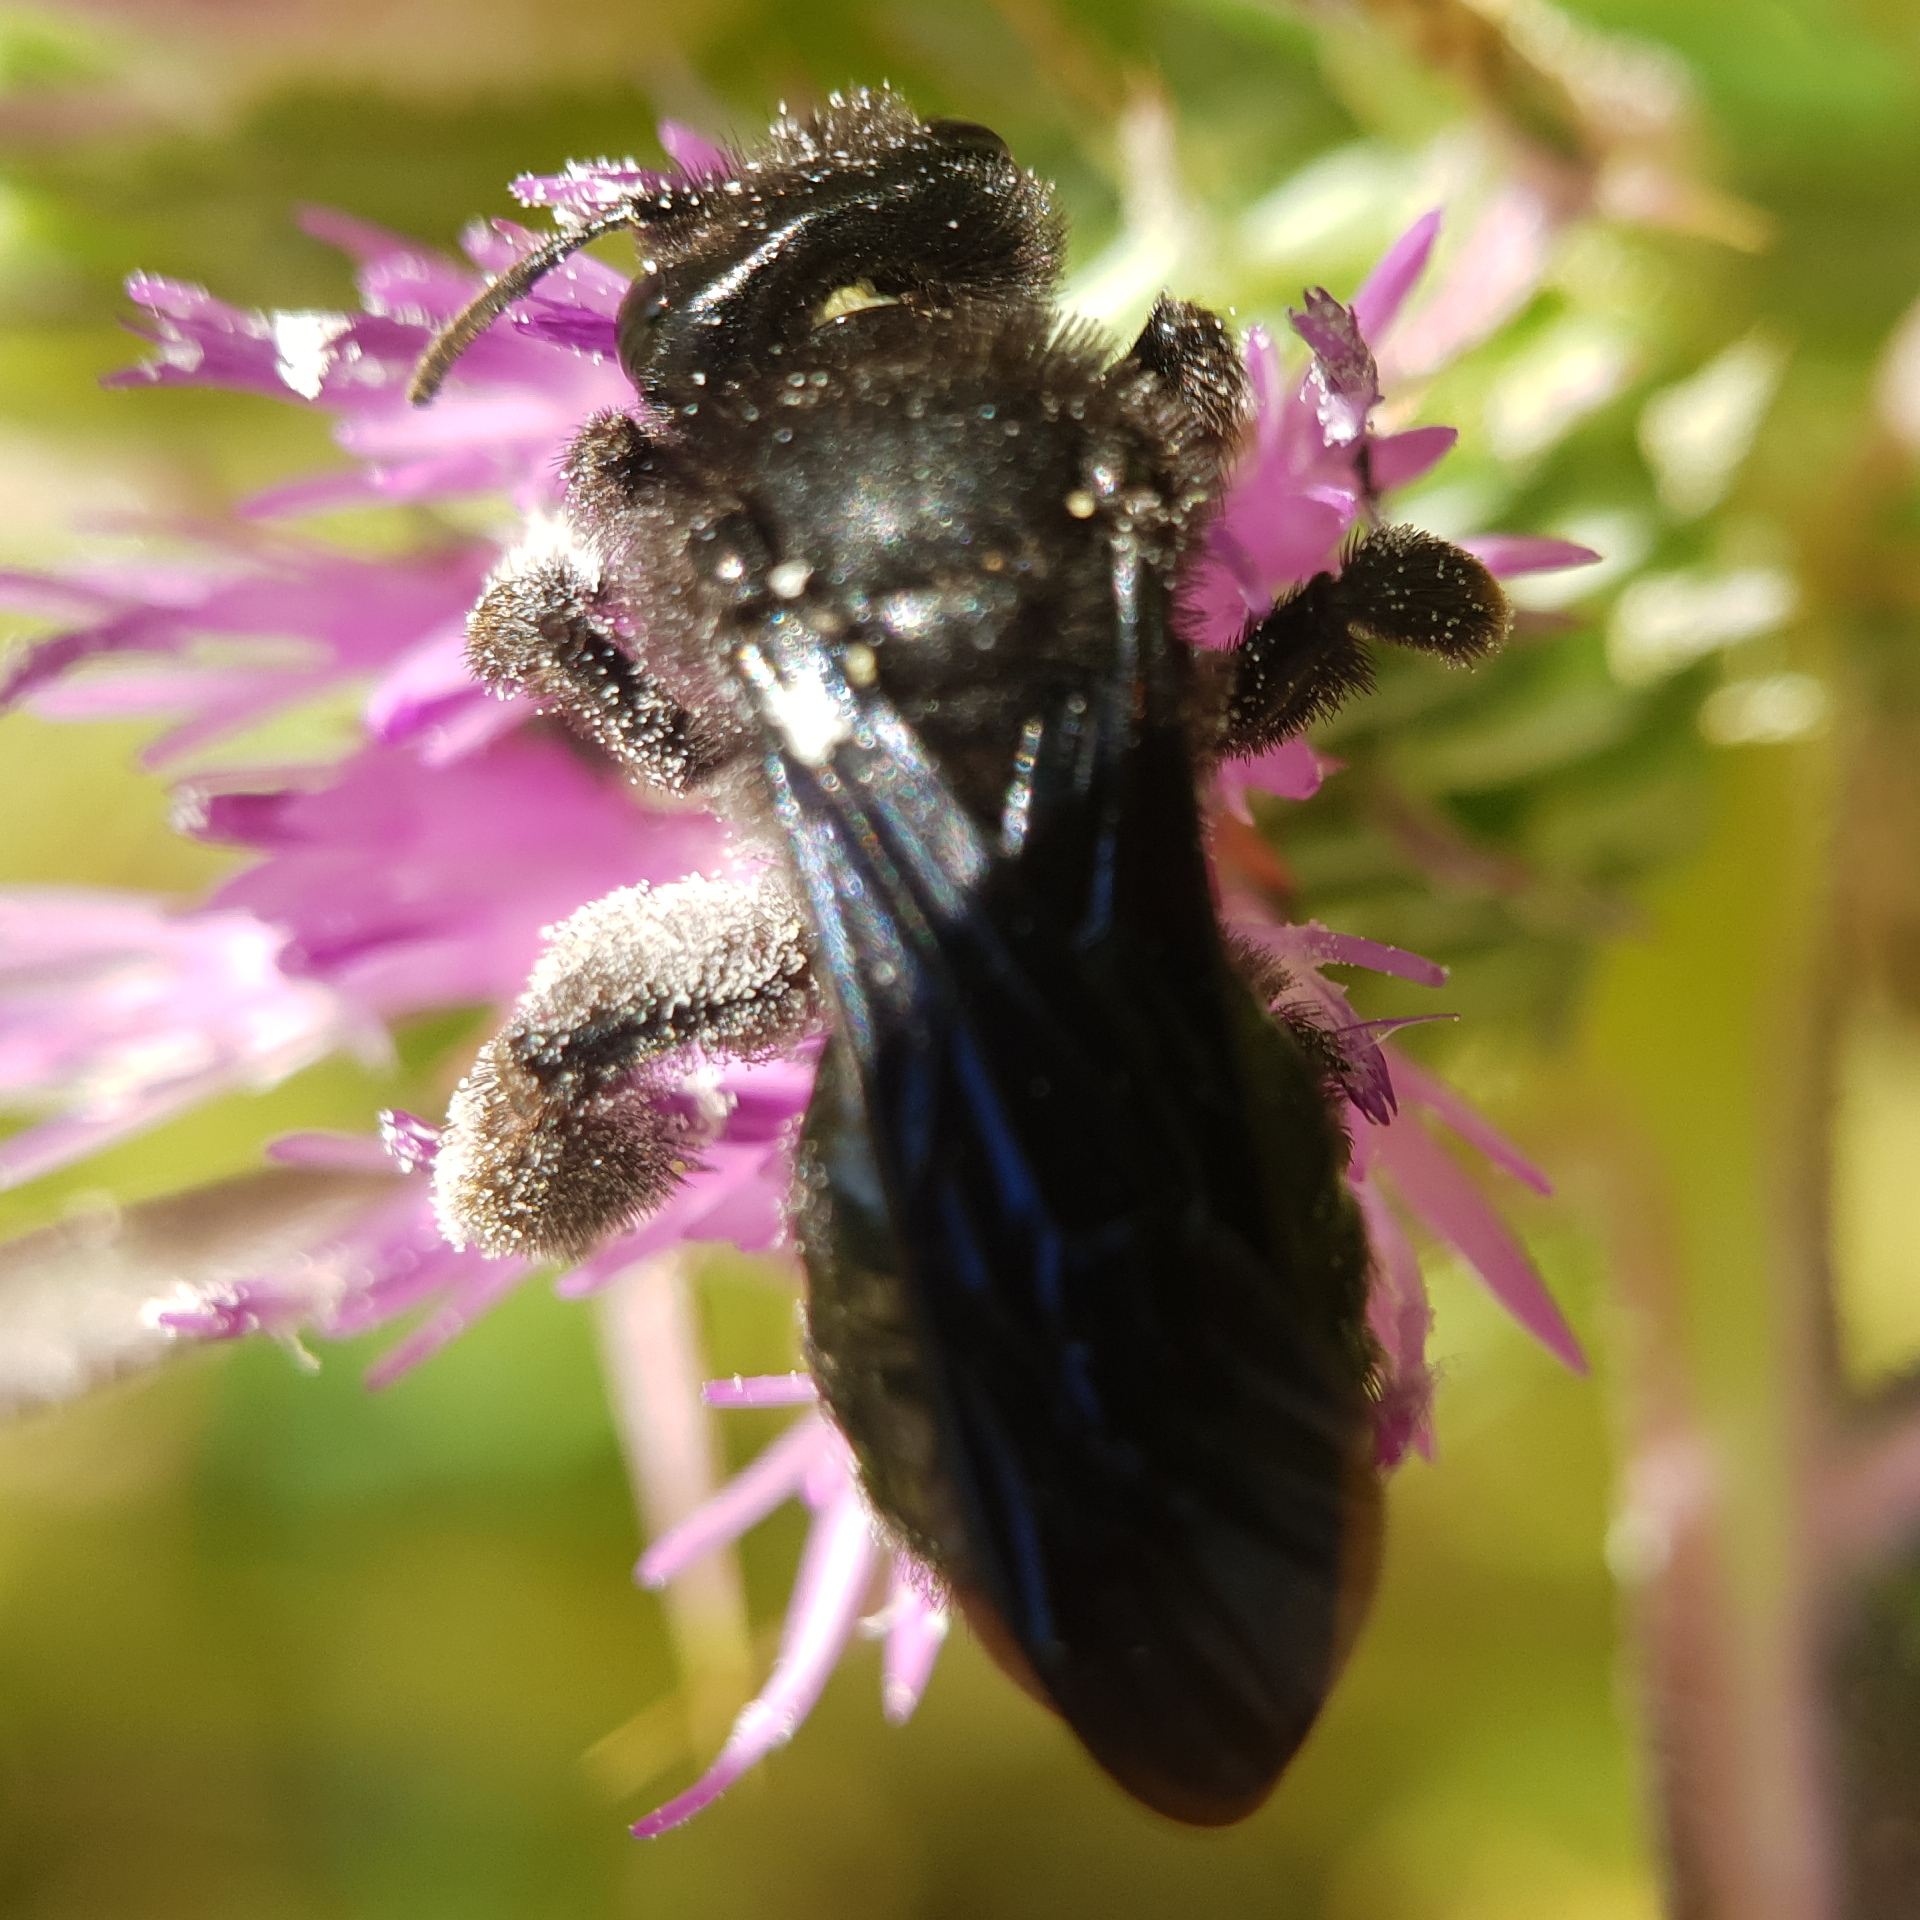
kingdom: Animalia
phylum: Arthropoda
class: Insecta
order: Hymenoptera
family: Andrenidae
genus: Andrena
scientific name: Andrena pyropygia
